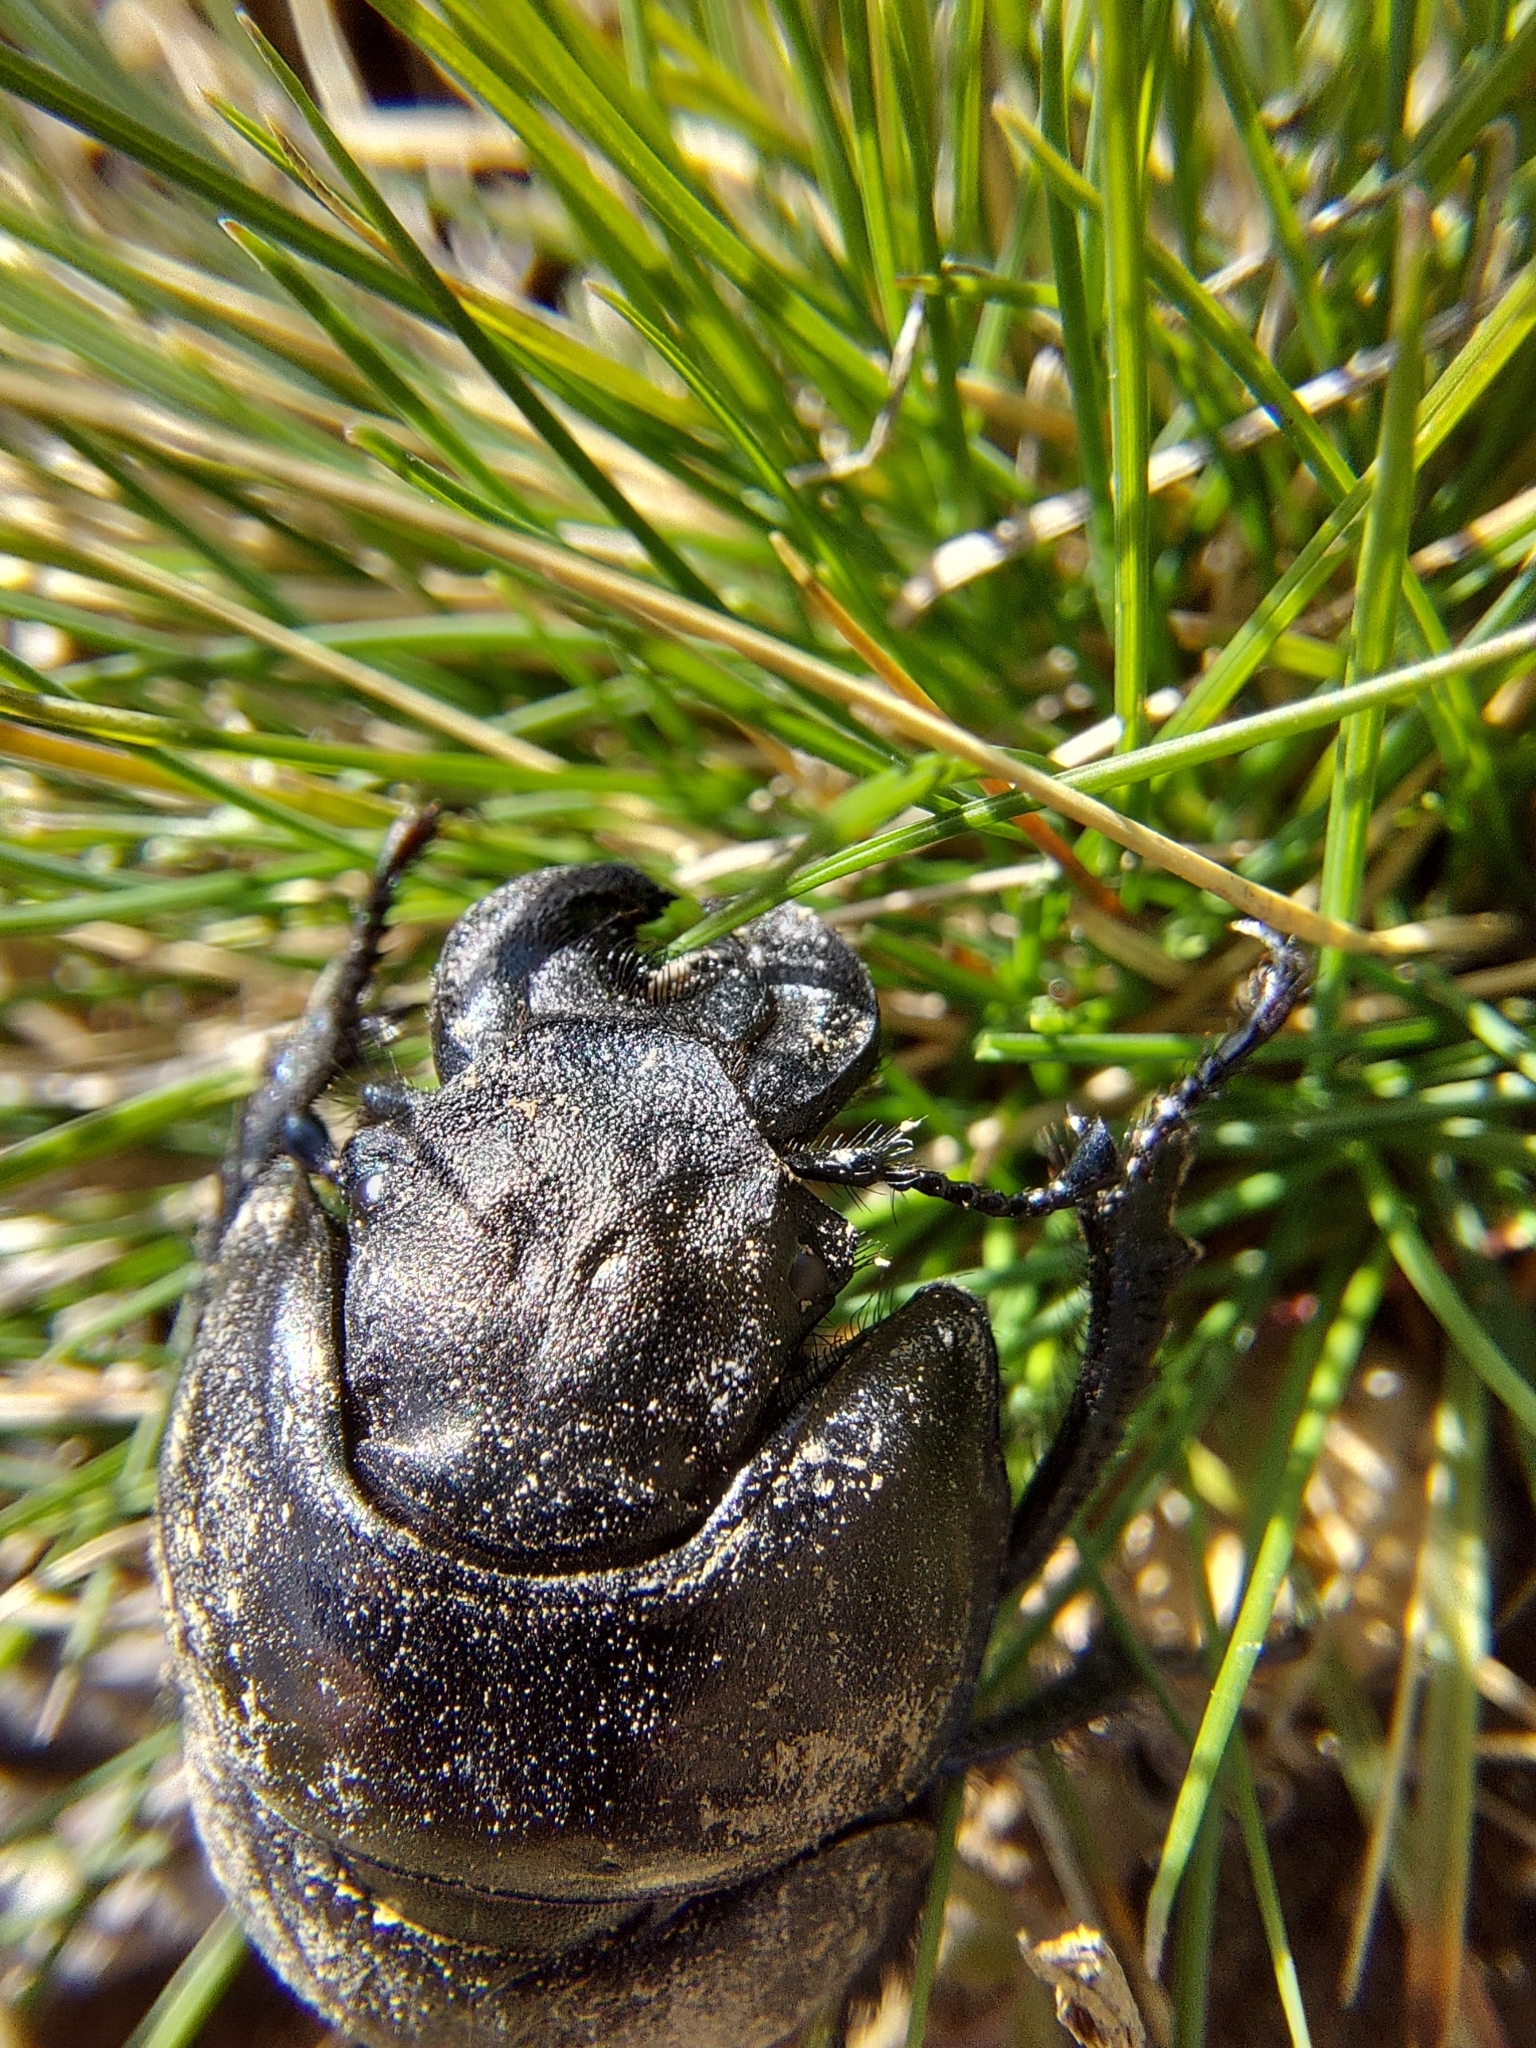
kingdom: Animalia
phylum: Arthropoda
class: Insecta
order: Coleoptera
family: Geotrupidae
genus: Lethrus
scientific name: Lethrus apterus
